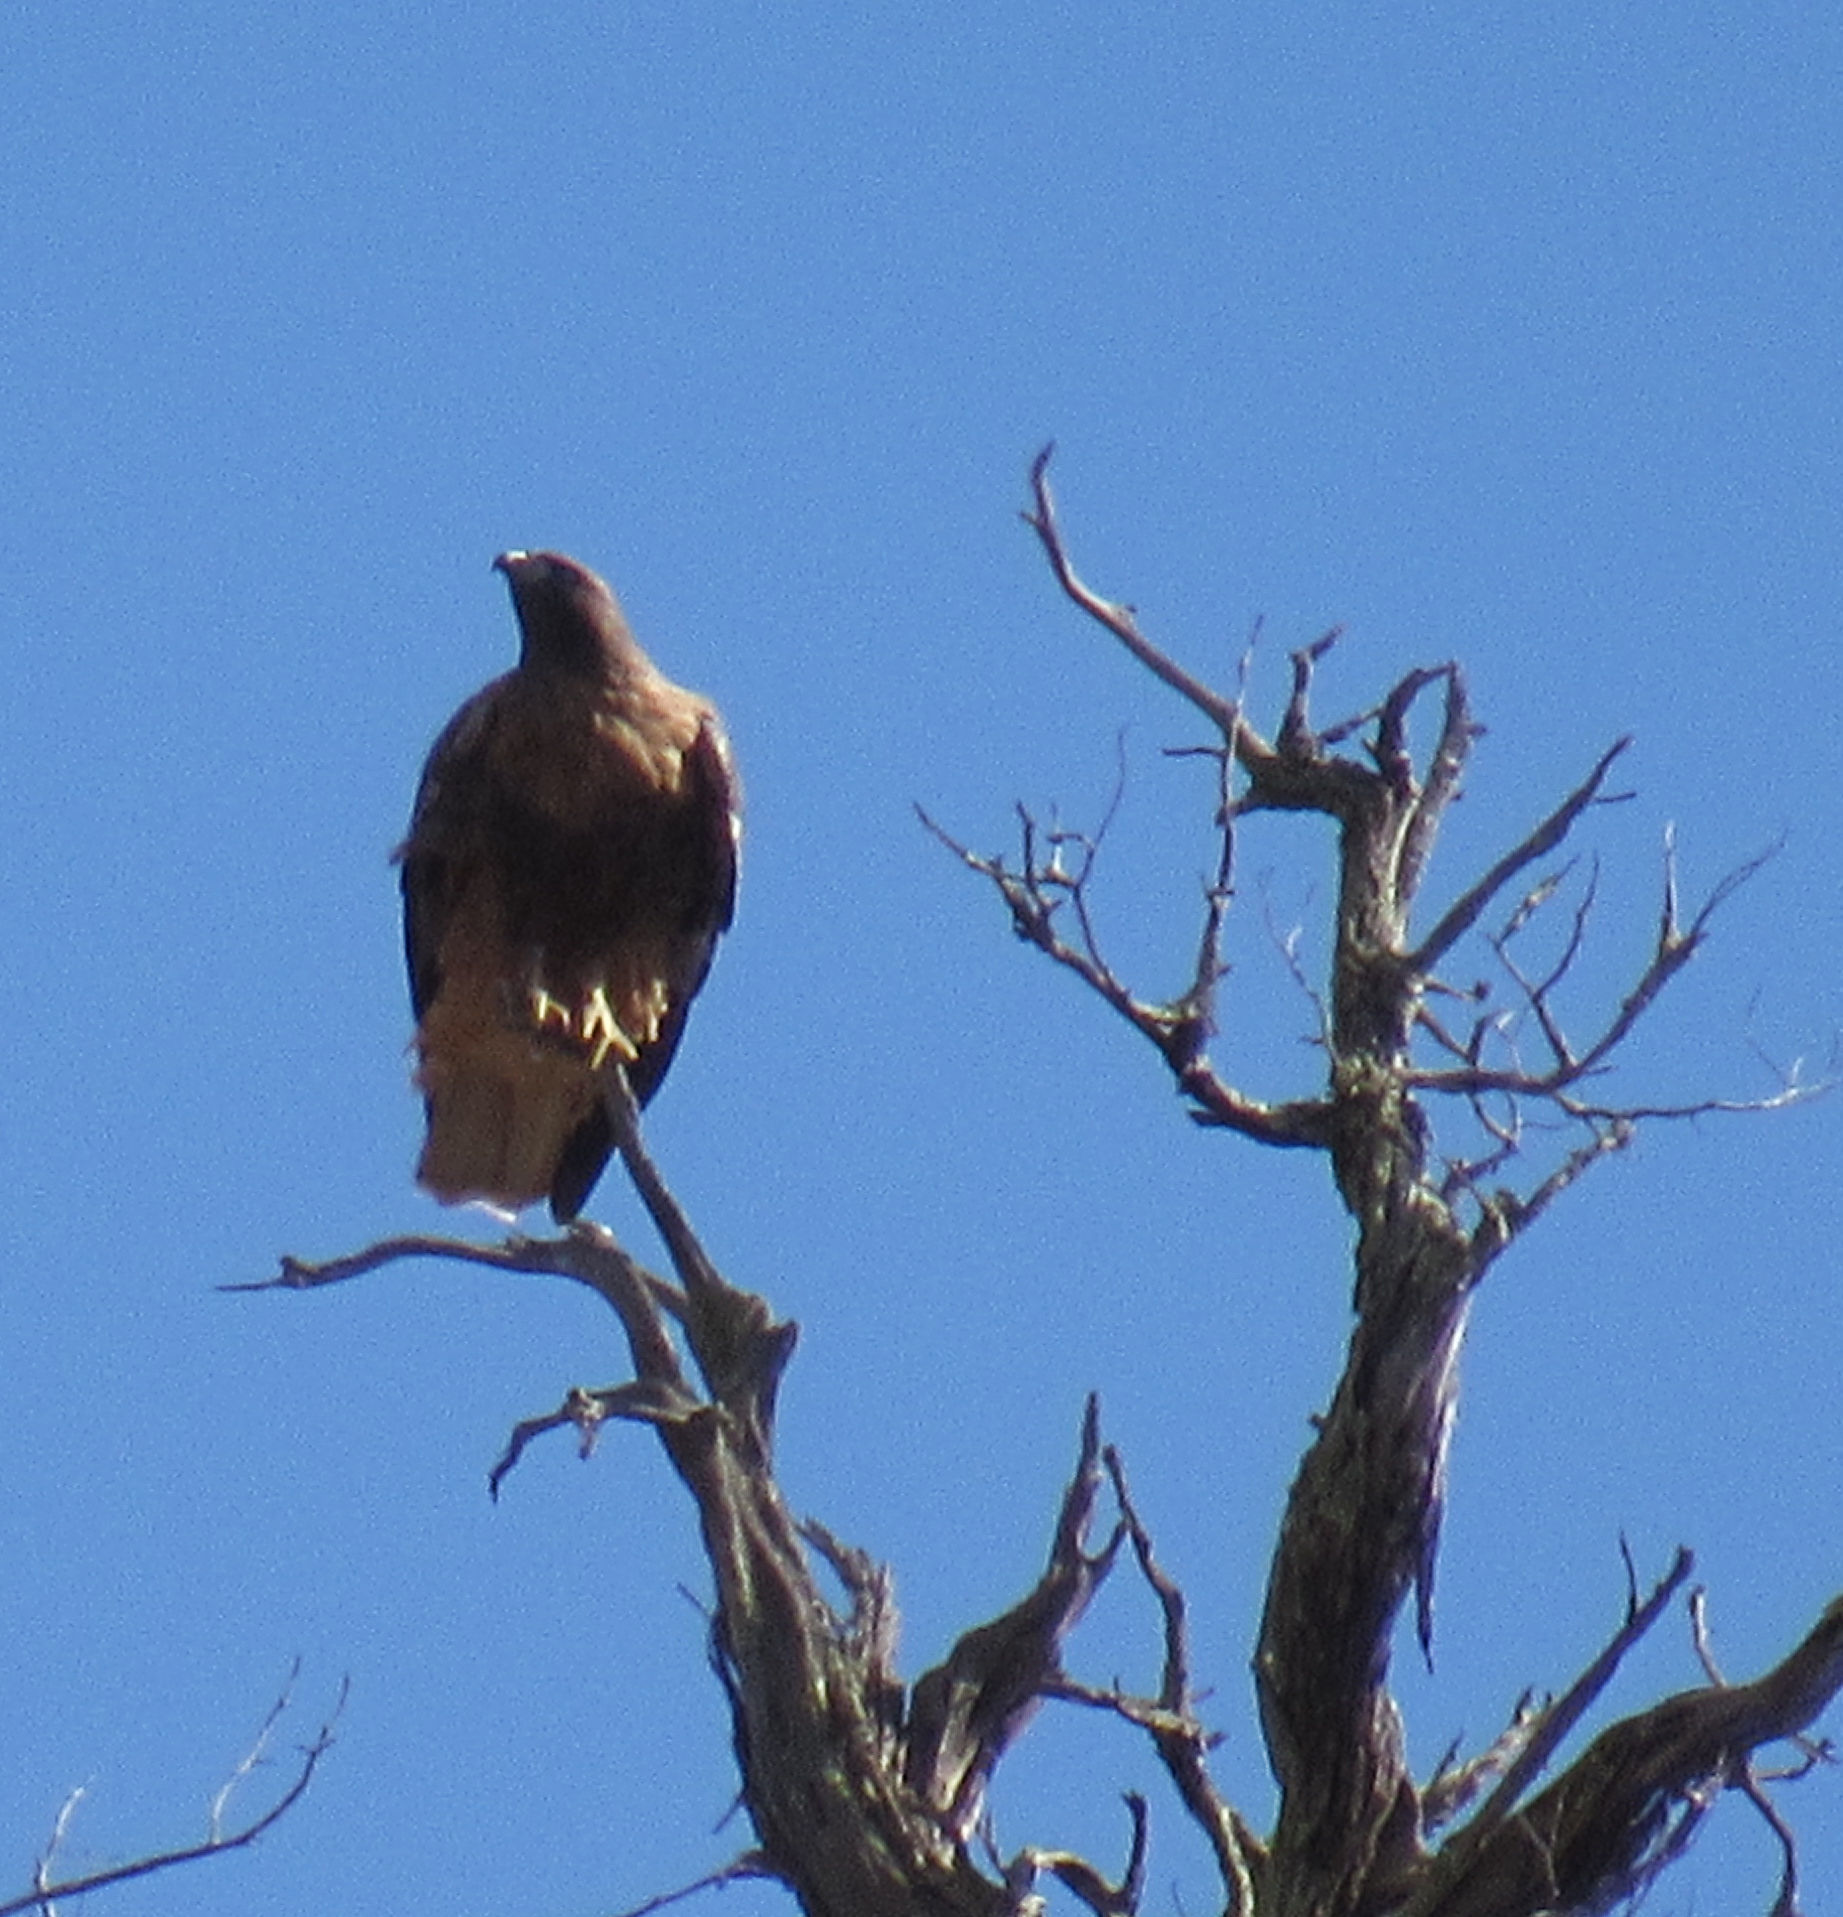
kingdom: Animalia
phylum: Chordata
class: Aves
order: Accipitriformes
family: Accipitridae
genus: Aquila
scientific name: Aquila chrysaetos
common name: Golden eagle
